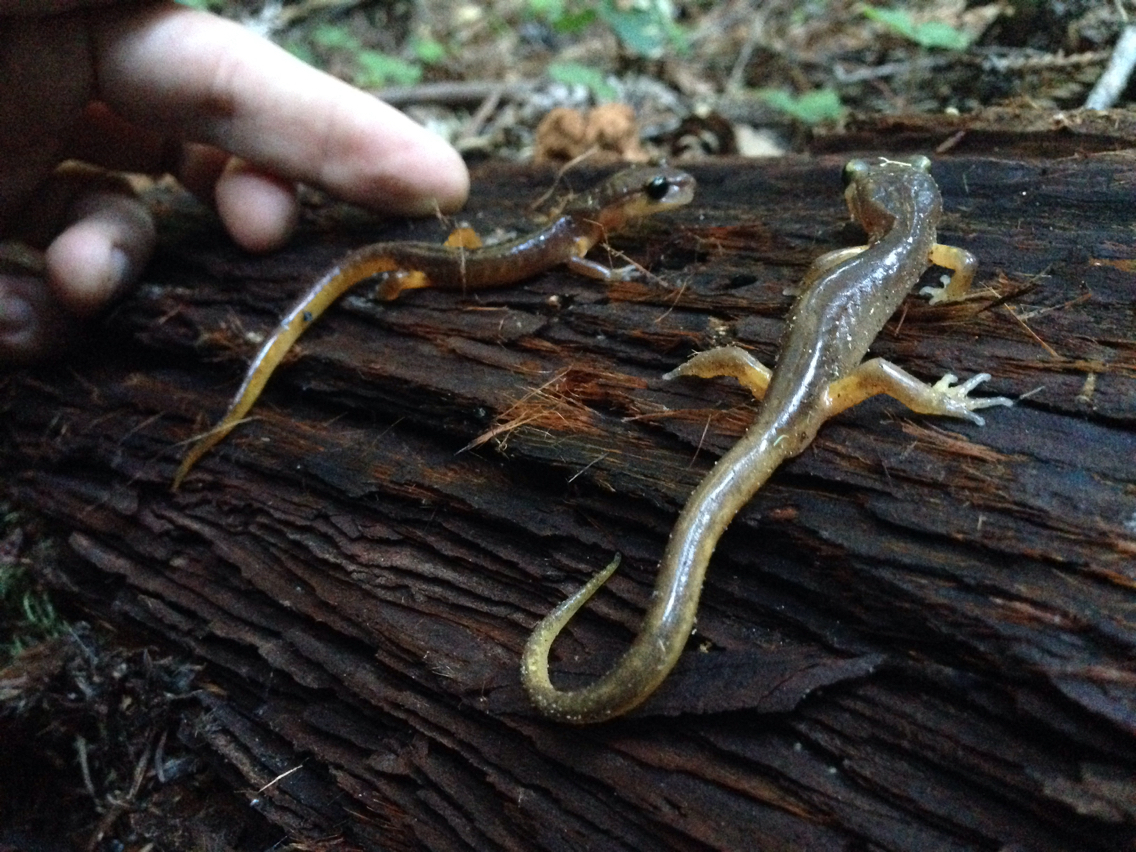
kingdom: Animalia
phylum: Chordata
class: Amphibia
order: Caudata
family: Plethodontidae
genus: Ensatina
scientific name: Ensatina eschscholtzii
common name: Ensatina
